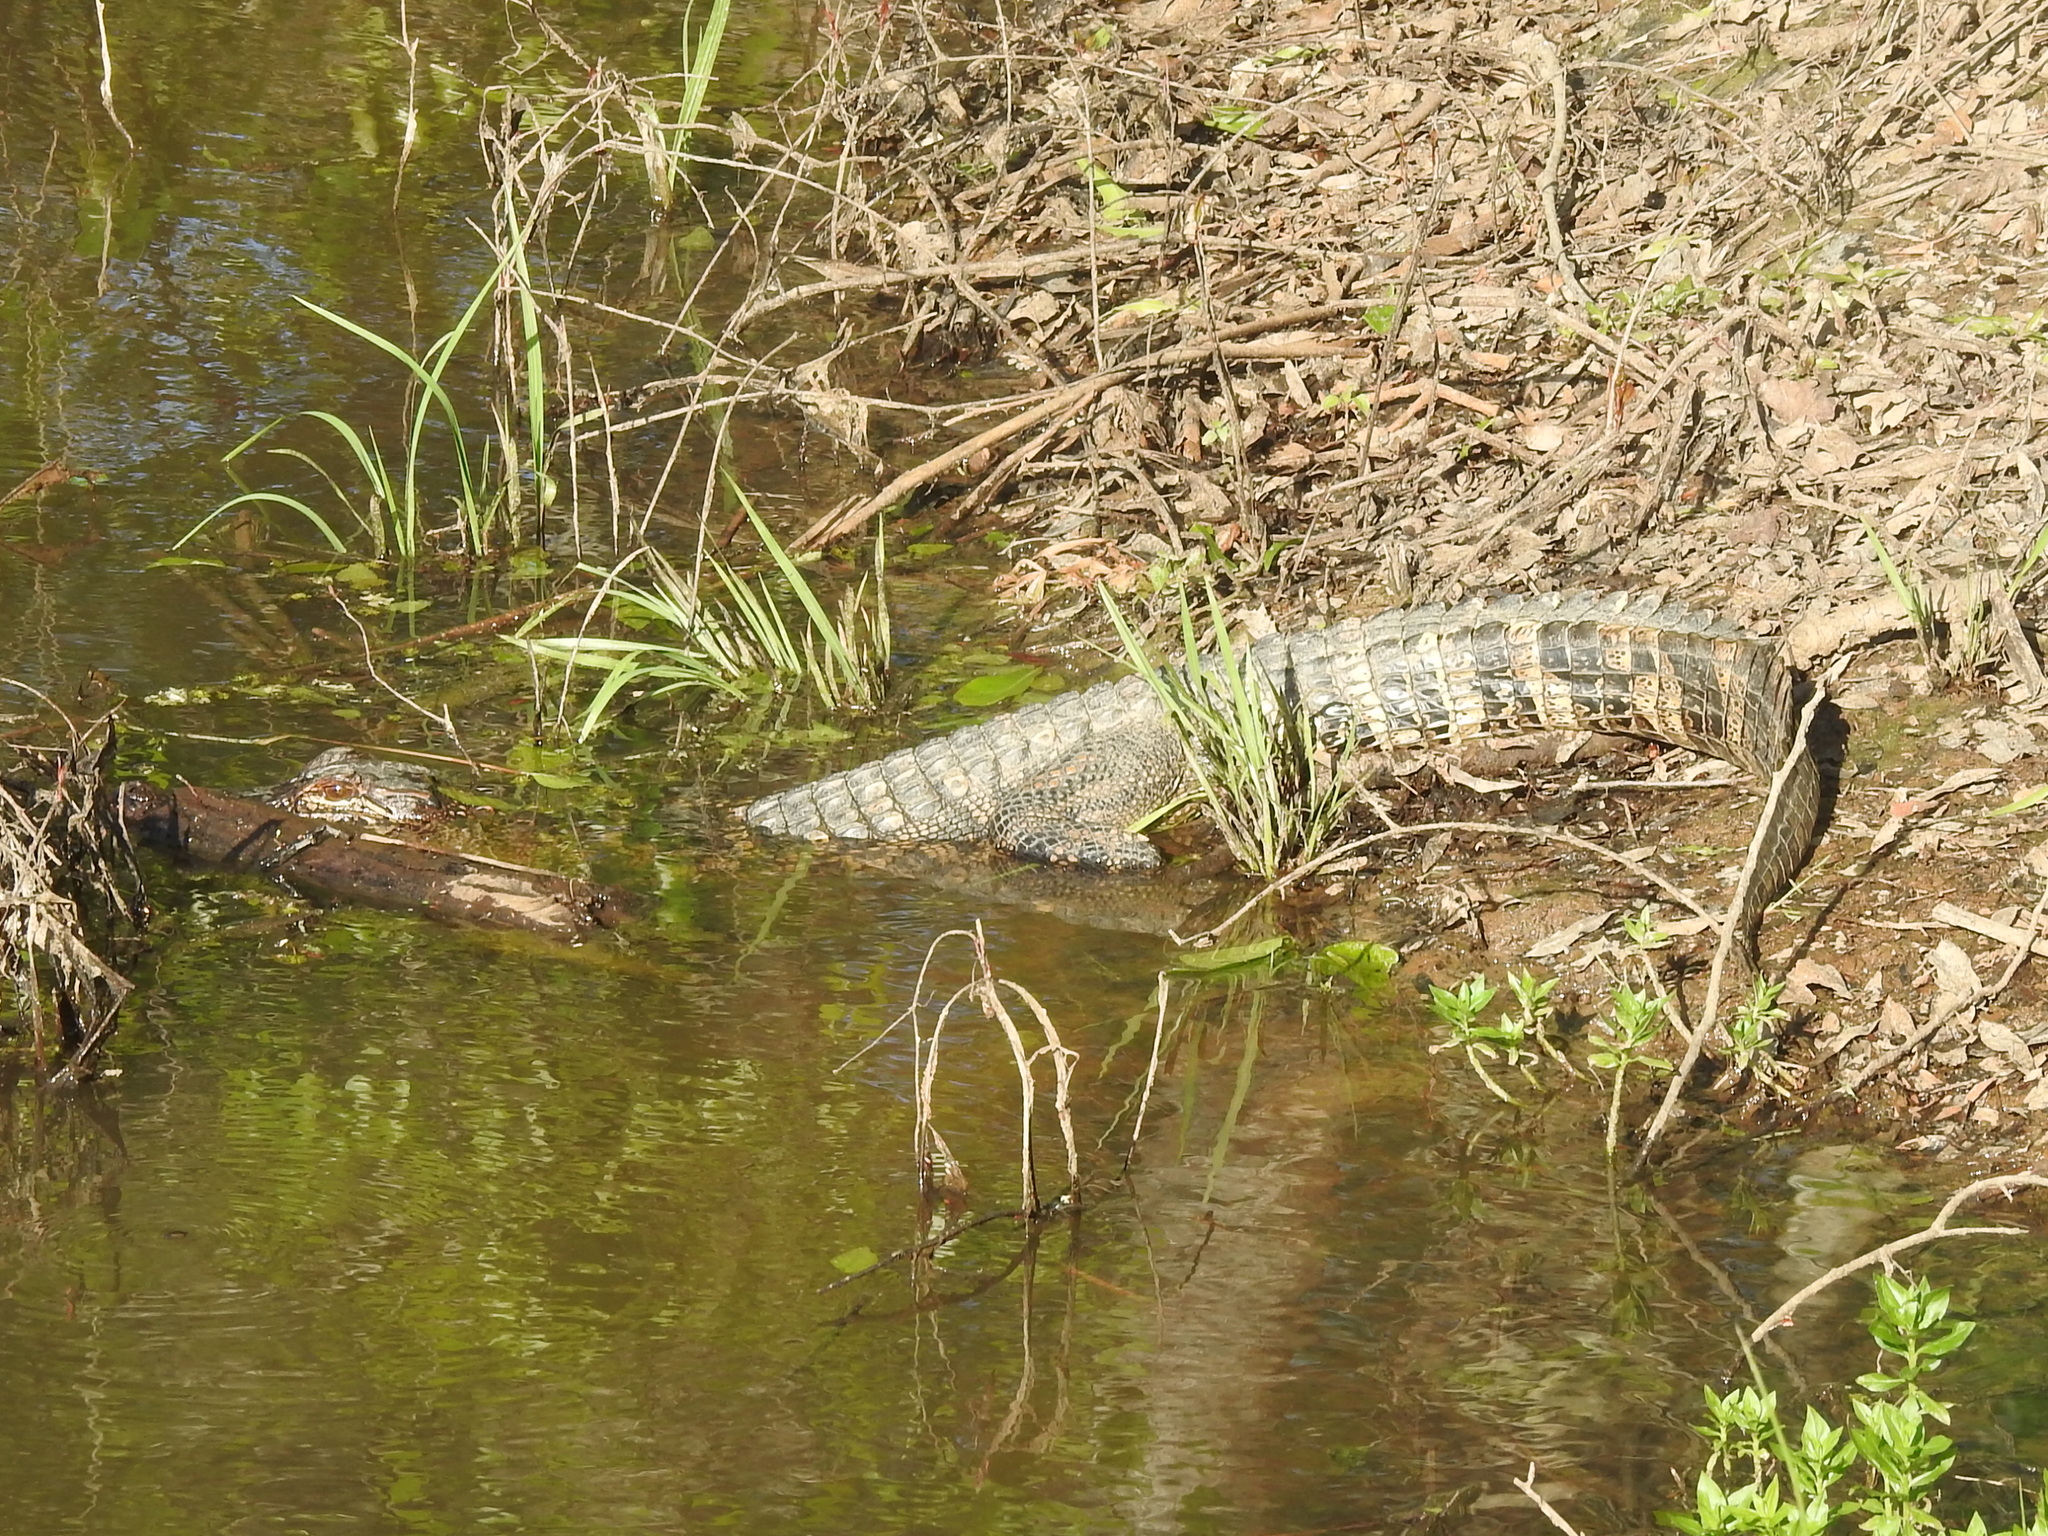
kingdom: Animalia
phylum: Chordata
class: Crocodylia
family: Alligatoridae
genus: Alligator
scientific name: Alligator mississippiensis
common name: American alligator
